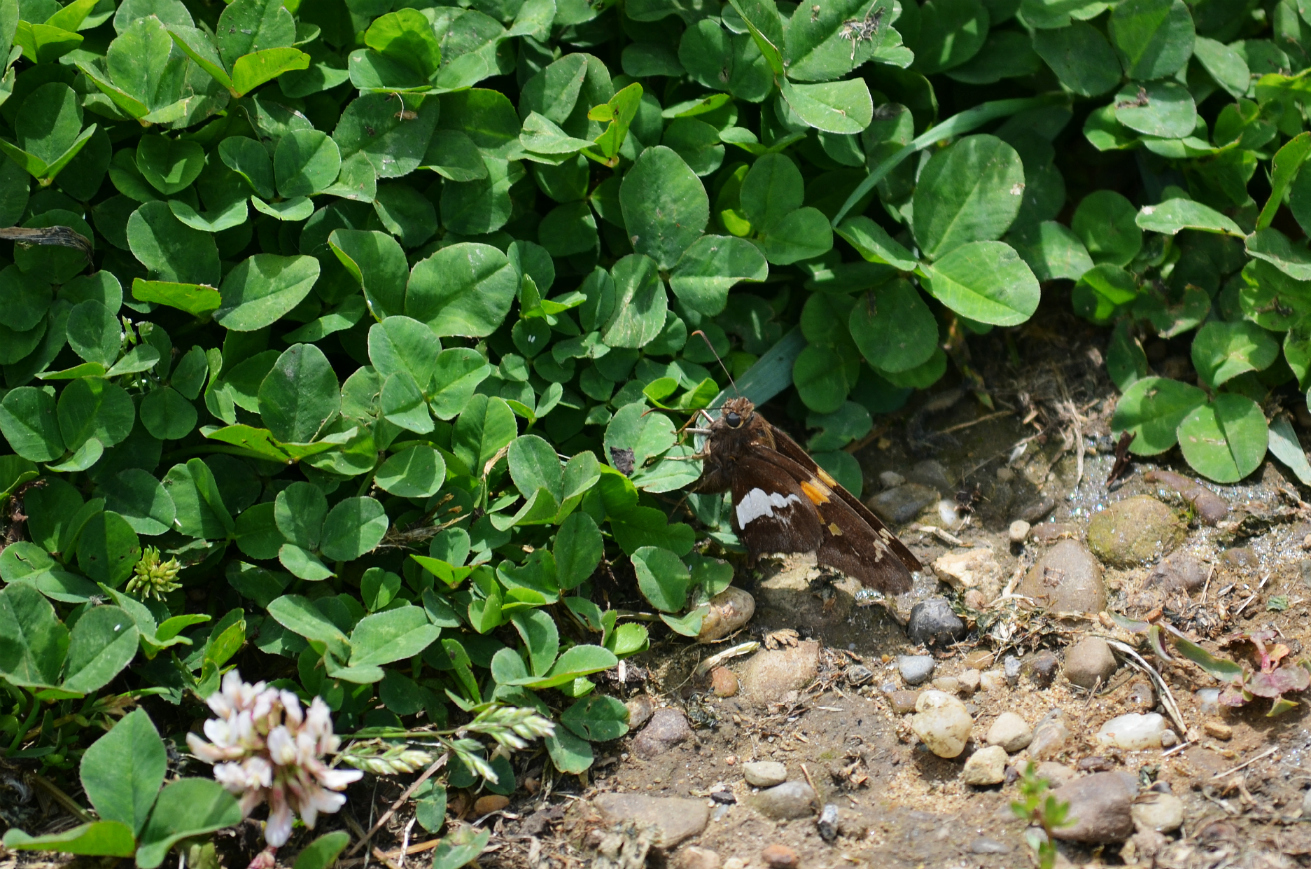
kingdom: Animalia
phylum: Arthropoda
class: Insecta
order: Lepidoptera
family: Hesperiidae
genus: Epargyreus
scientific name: Epargyreus clarus
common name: Silver-spotted skipper
